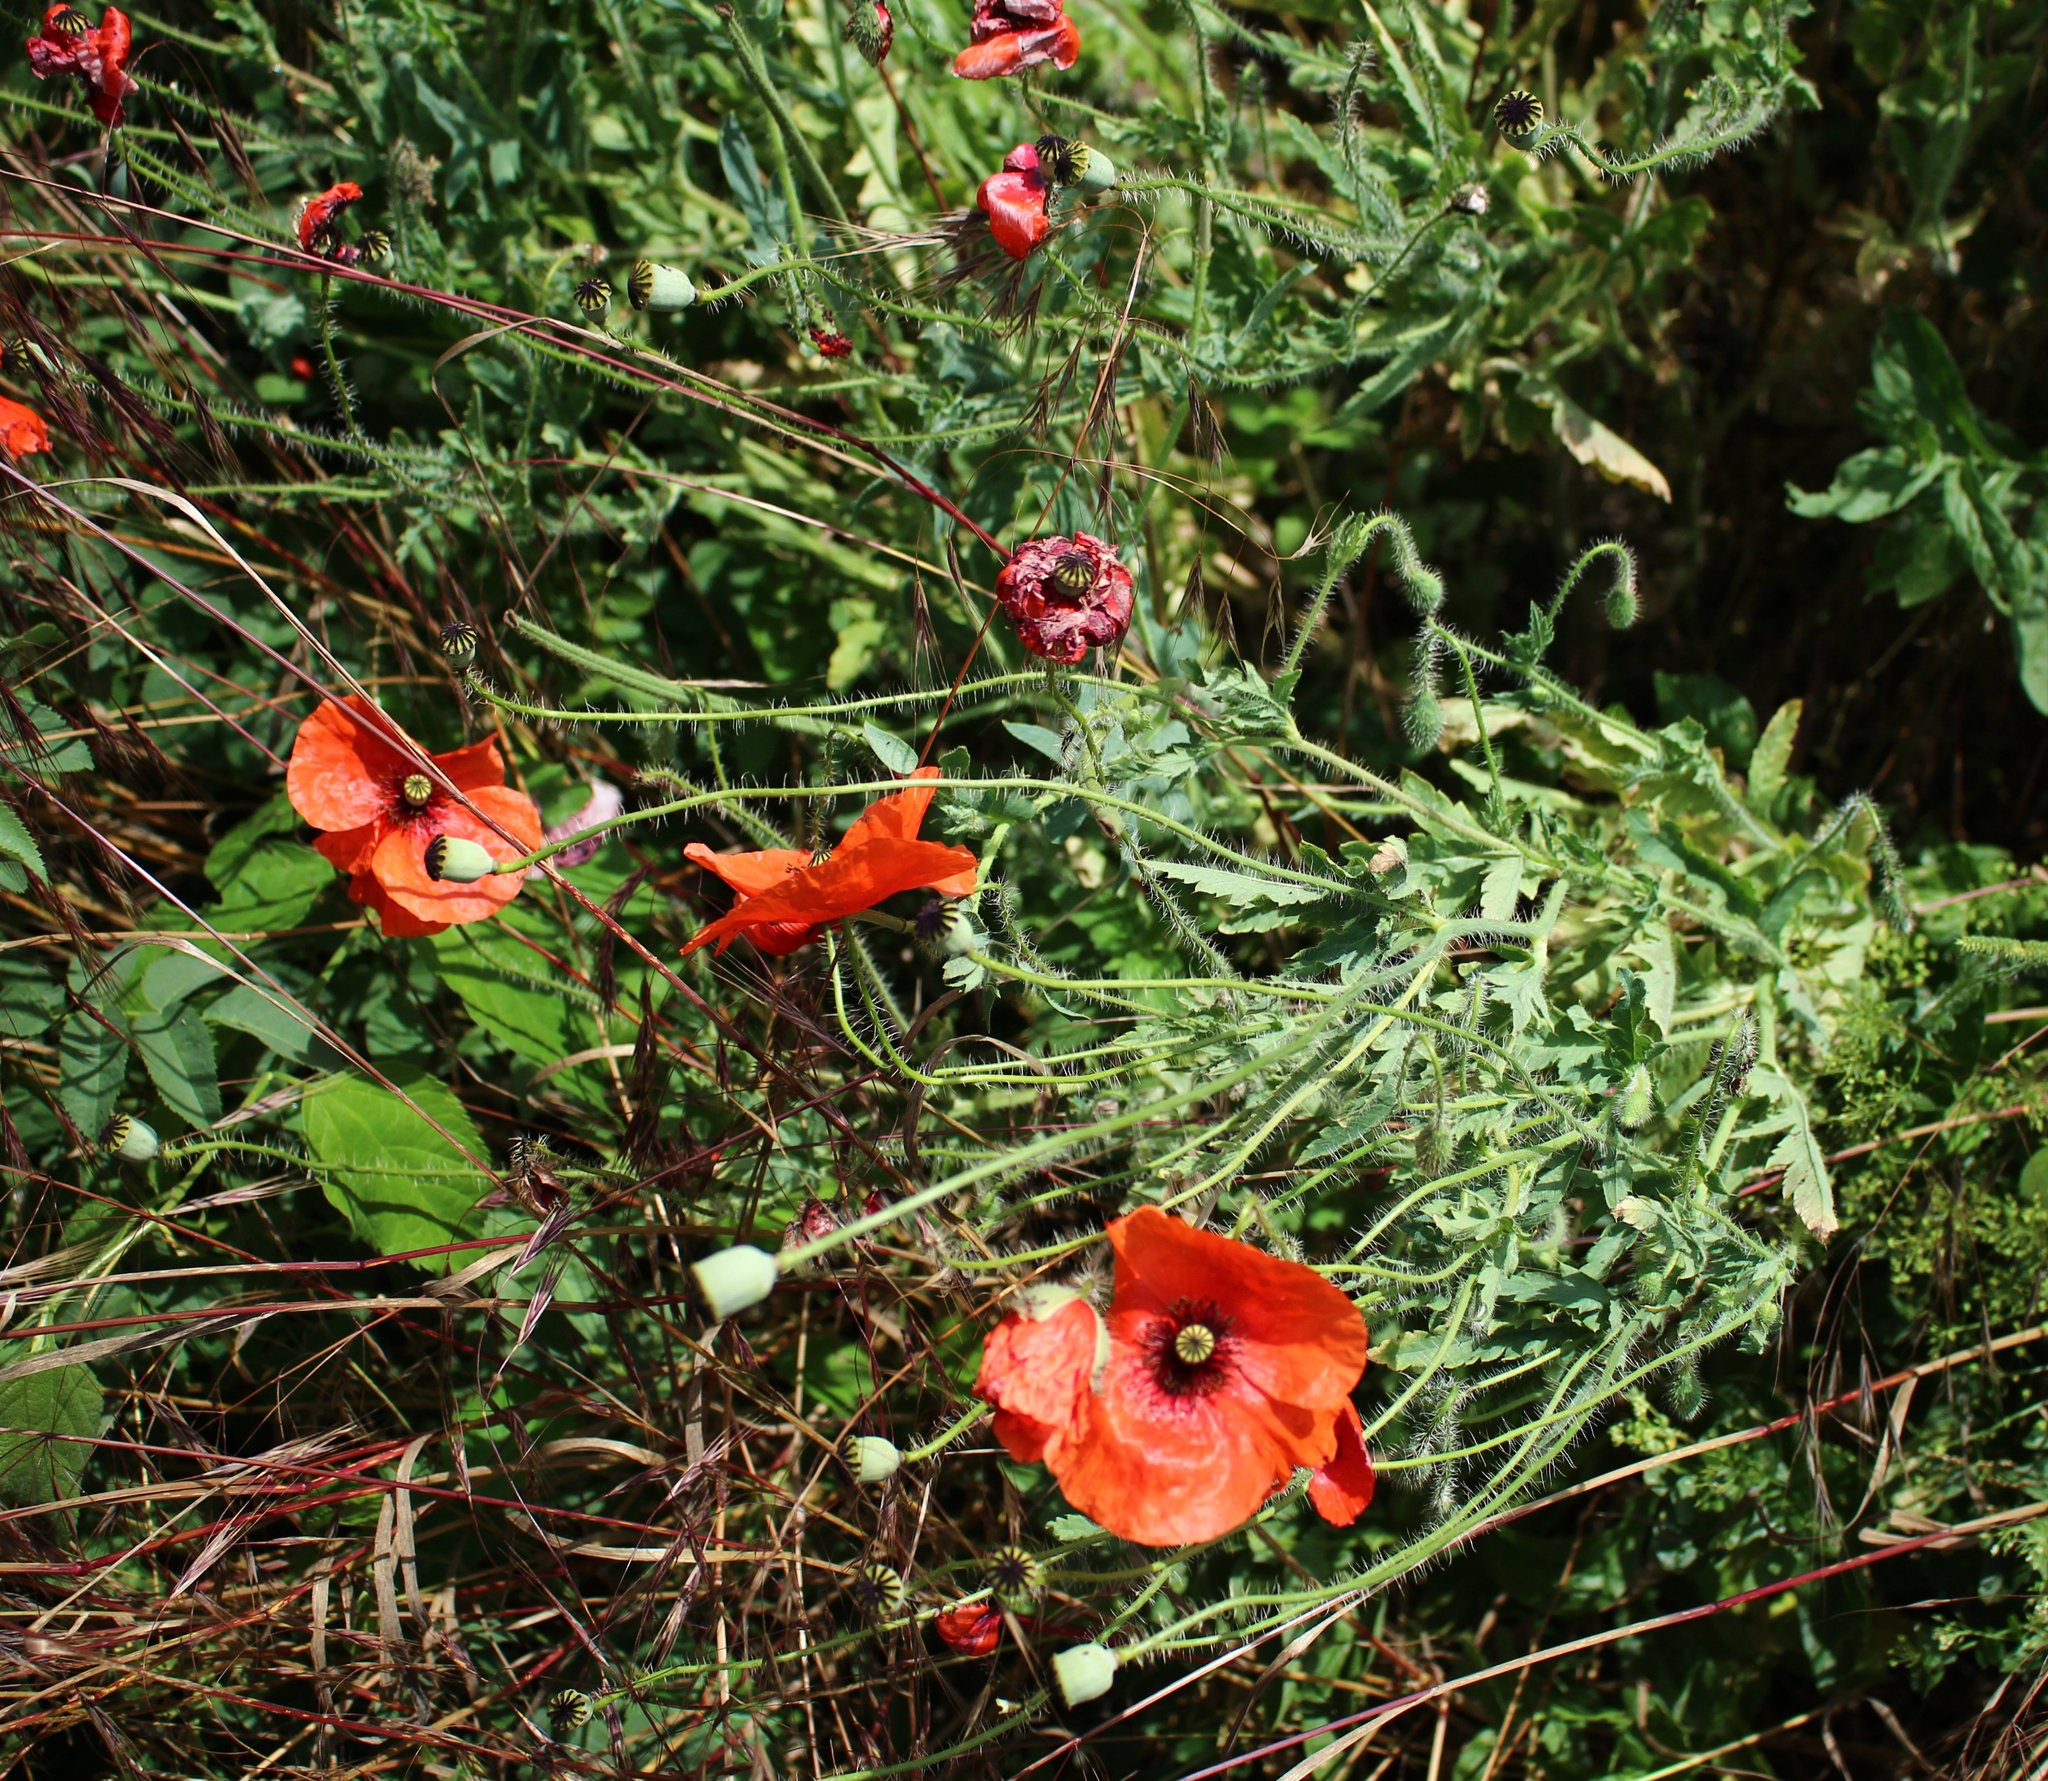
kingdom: Plantae
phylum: Tracheophyta
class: Magnoliopsida
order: Ranunculales
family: Papaveraceae
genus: Papaver
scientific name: Papaver rhoeas
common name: Corn poppy
